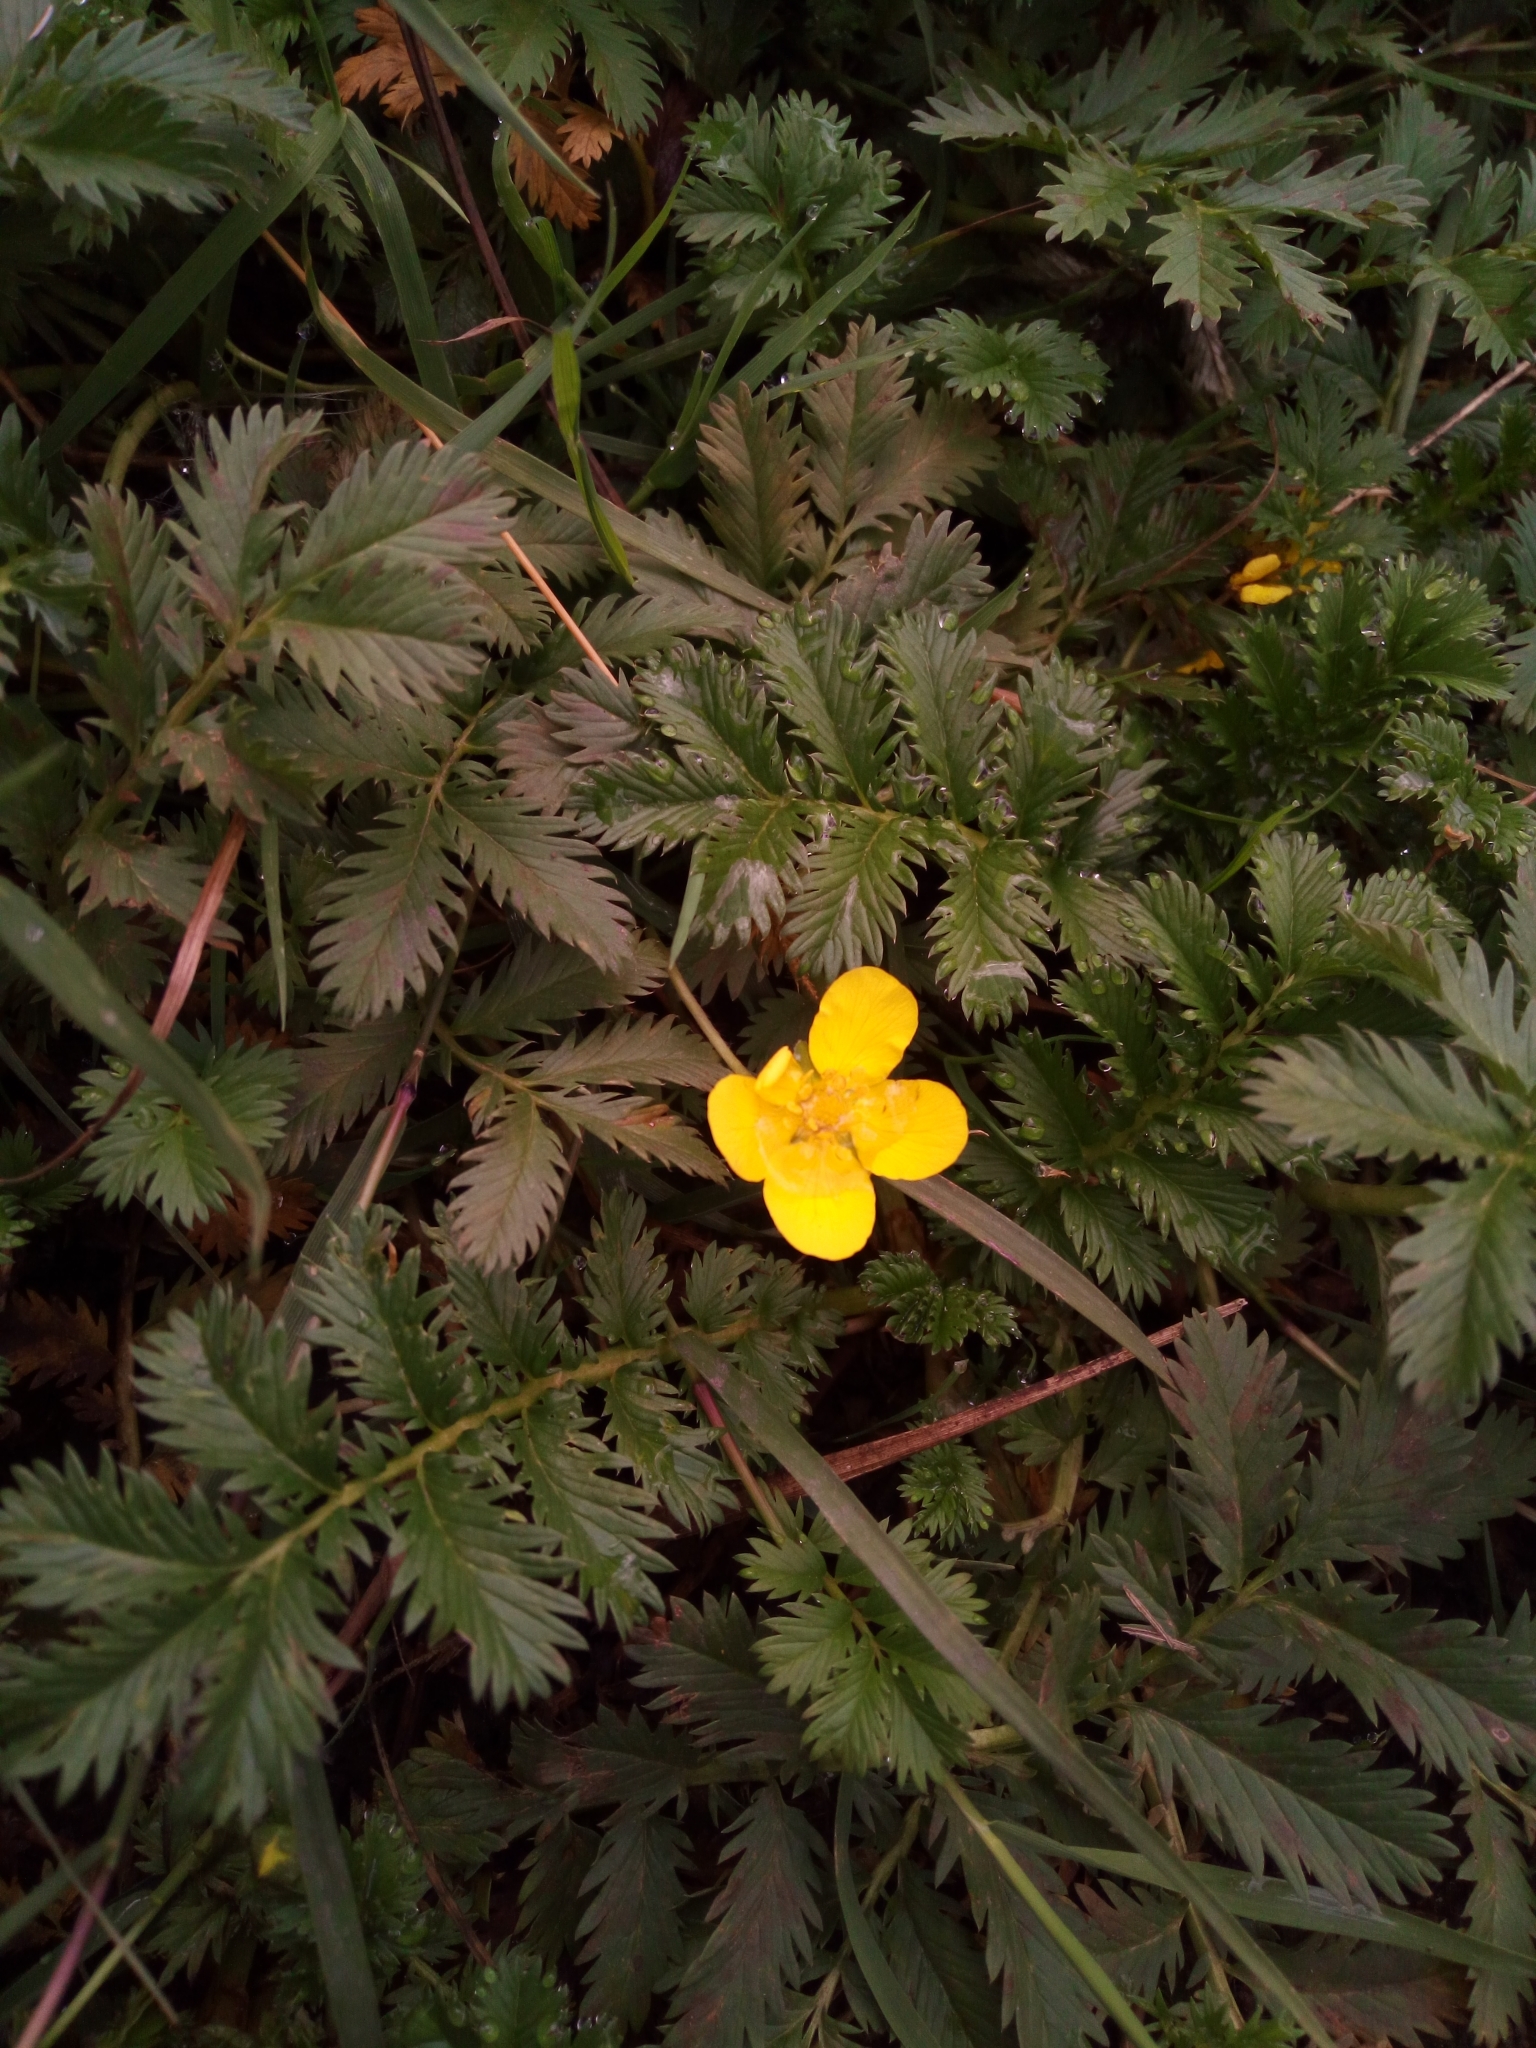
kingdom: Plantae
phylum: Tracheophyta
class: Magnoliopsida
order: Rosales
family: Rosaceae
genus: Argentina
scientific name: Argentina anserina
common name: Common silverweed
